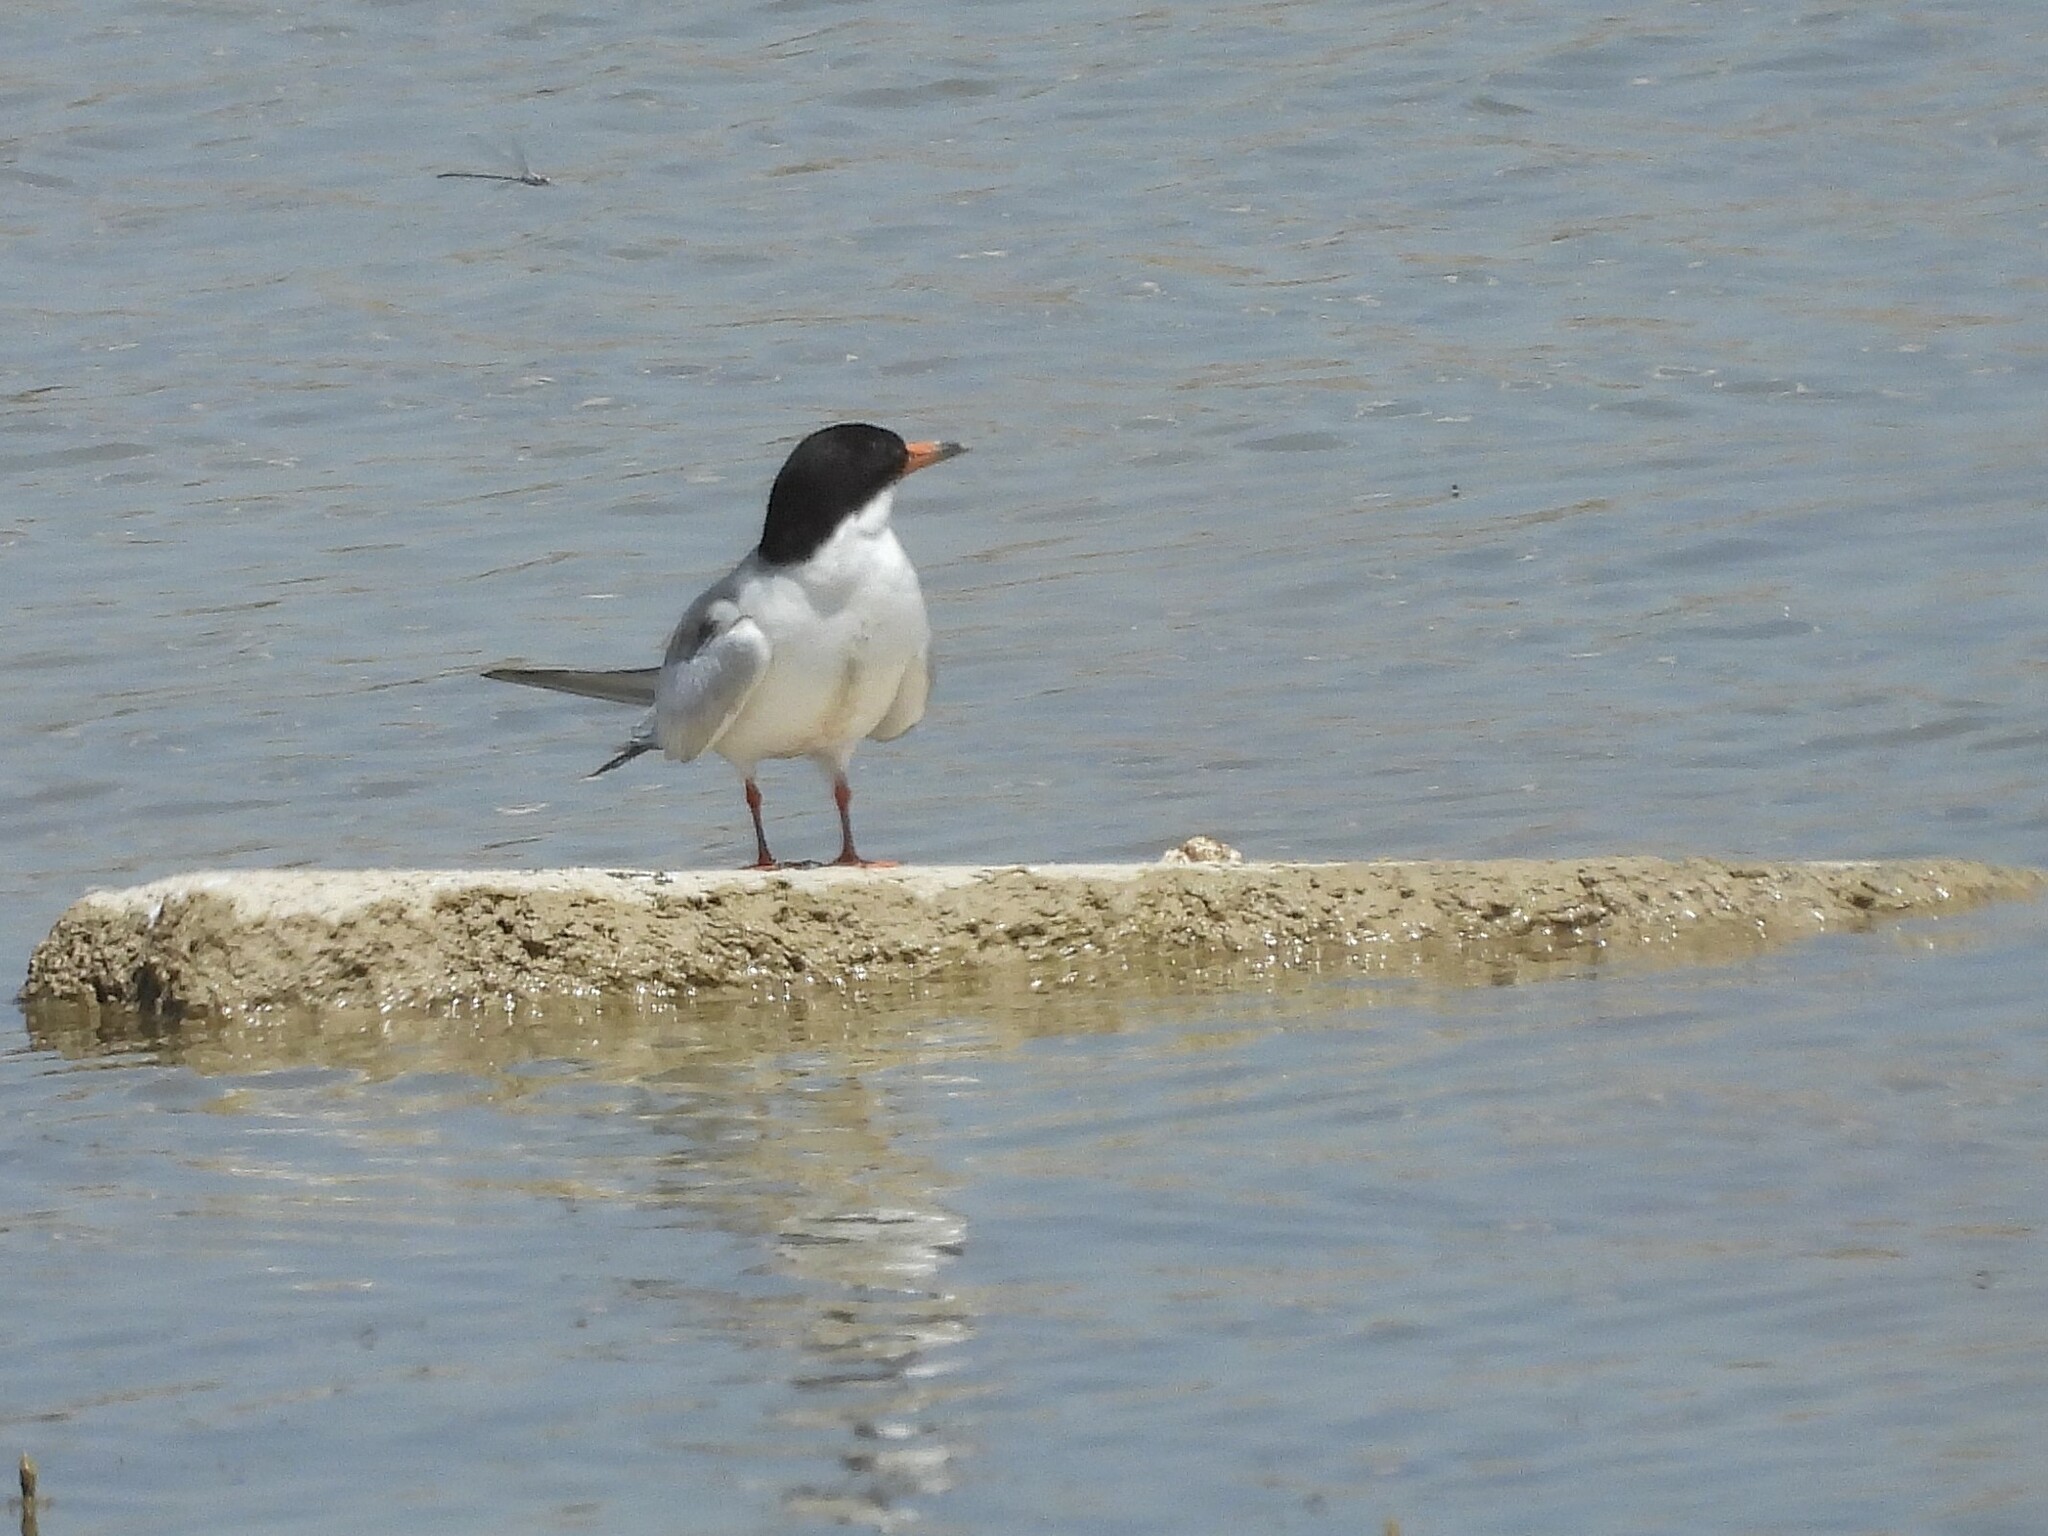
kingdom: Animalia
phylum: Chordata
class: Aves
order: Charadriiformes
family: Laridae
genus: Sterna
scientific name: Sterna forsteri
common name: Forster's tern
